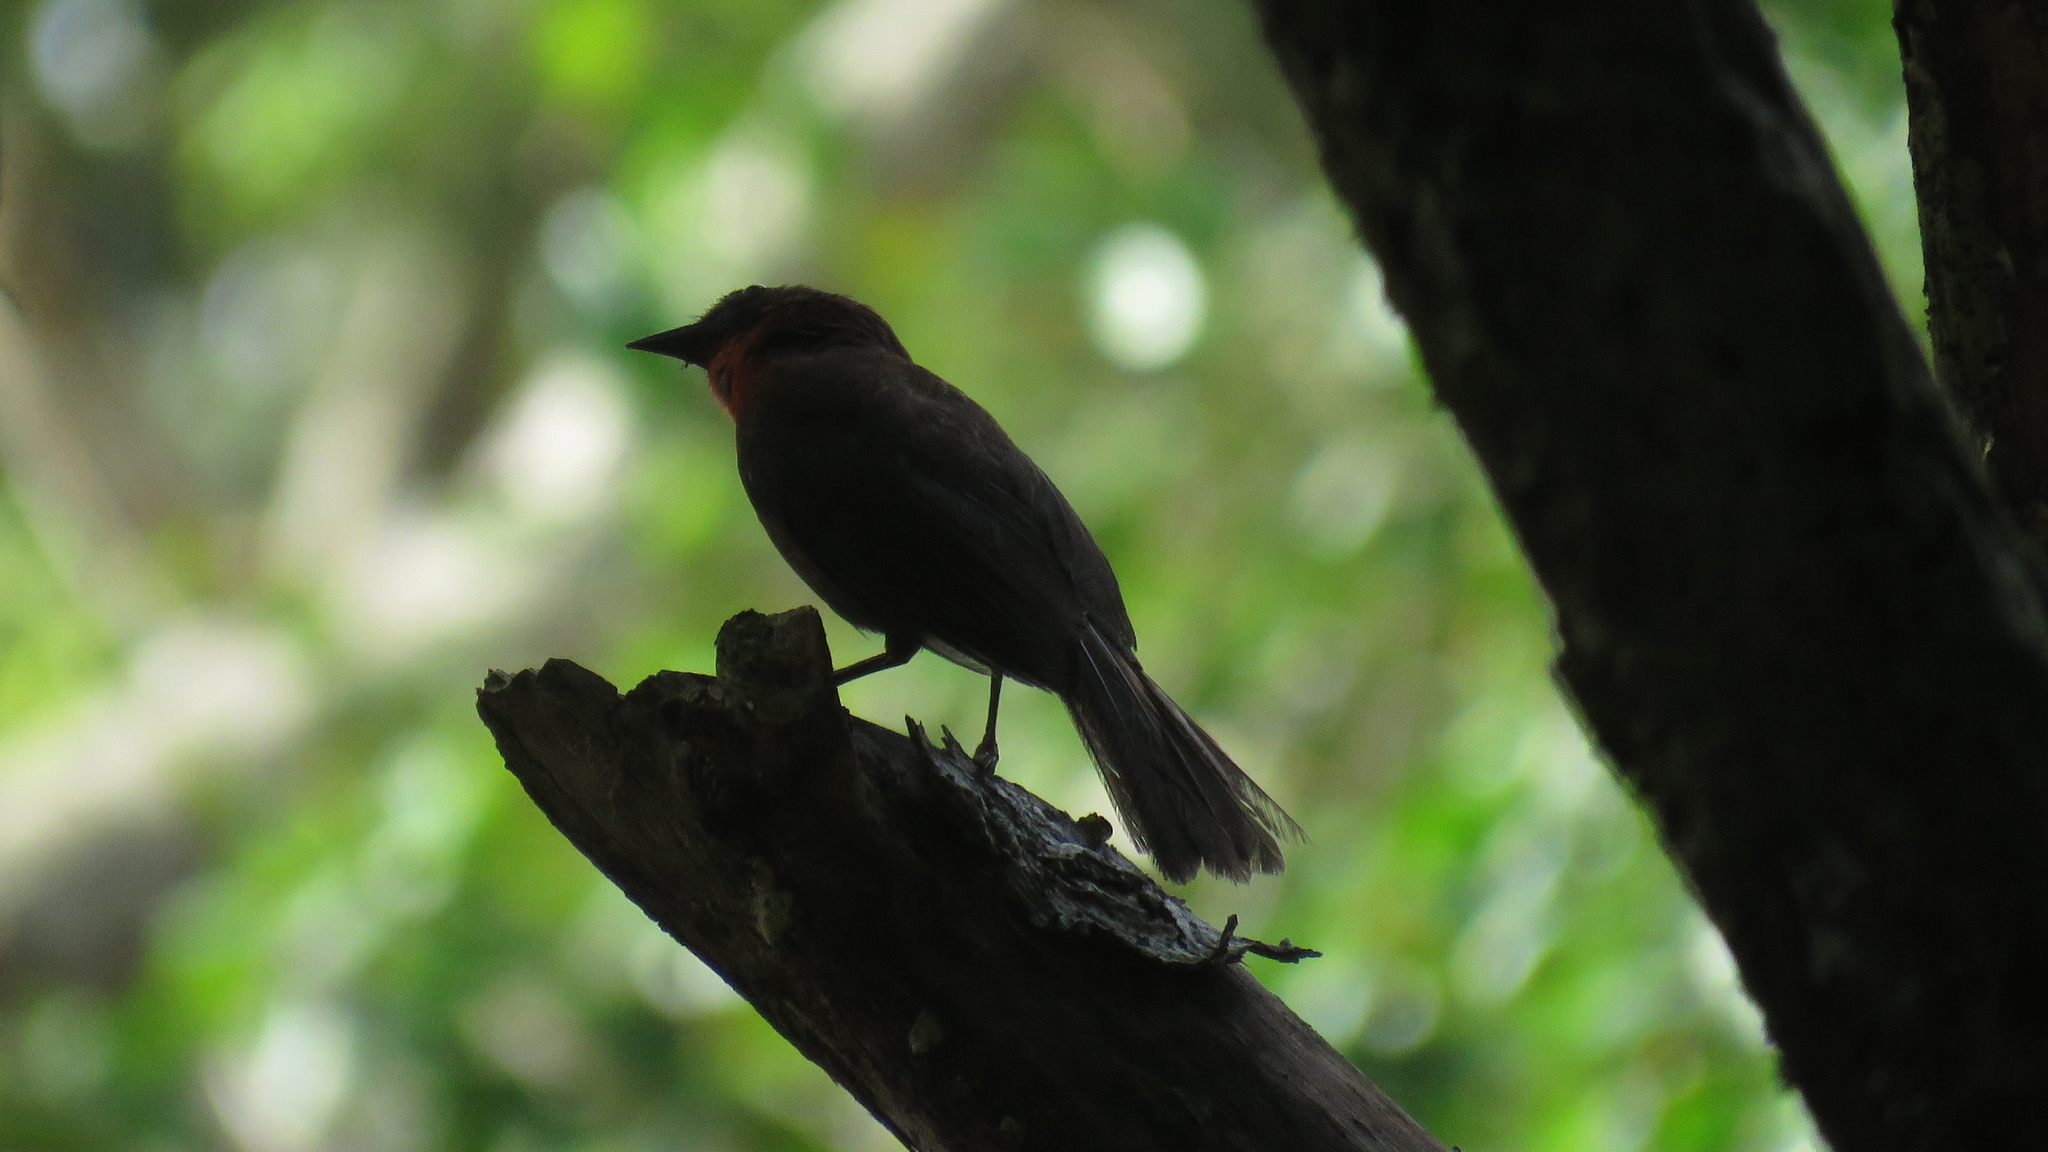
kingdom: Animalia
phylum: Chordata
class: Aves
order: Passeriformes
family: Cardinalidae
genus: Habia
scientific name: Habia fuscicauda
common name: Red-throated ant-tanager
